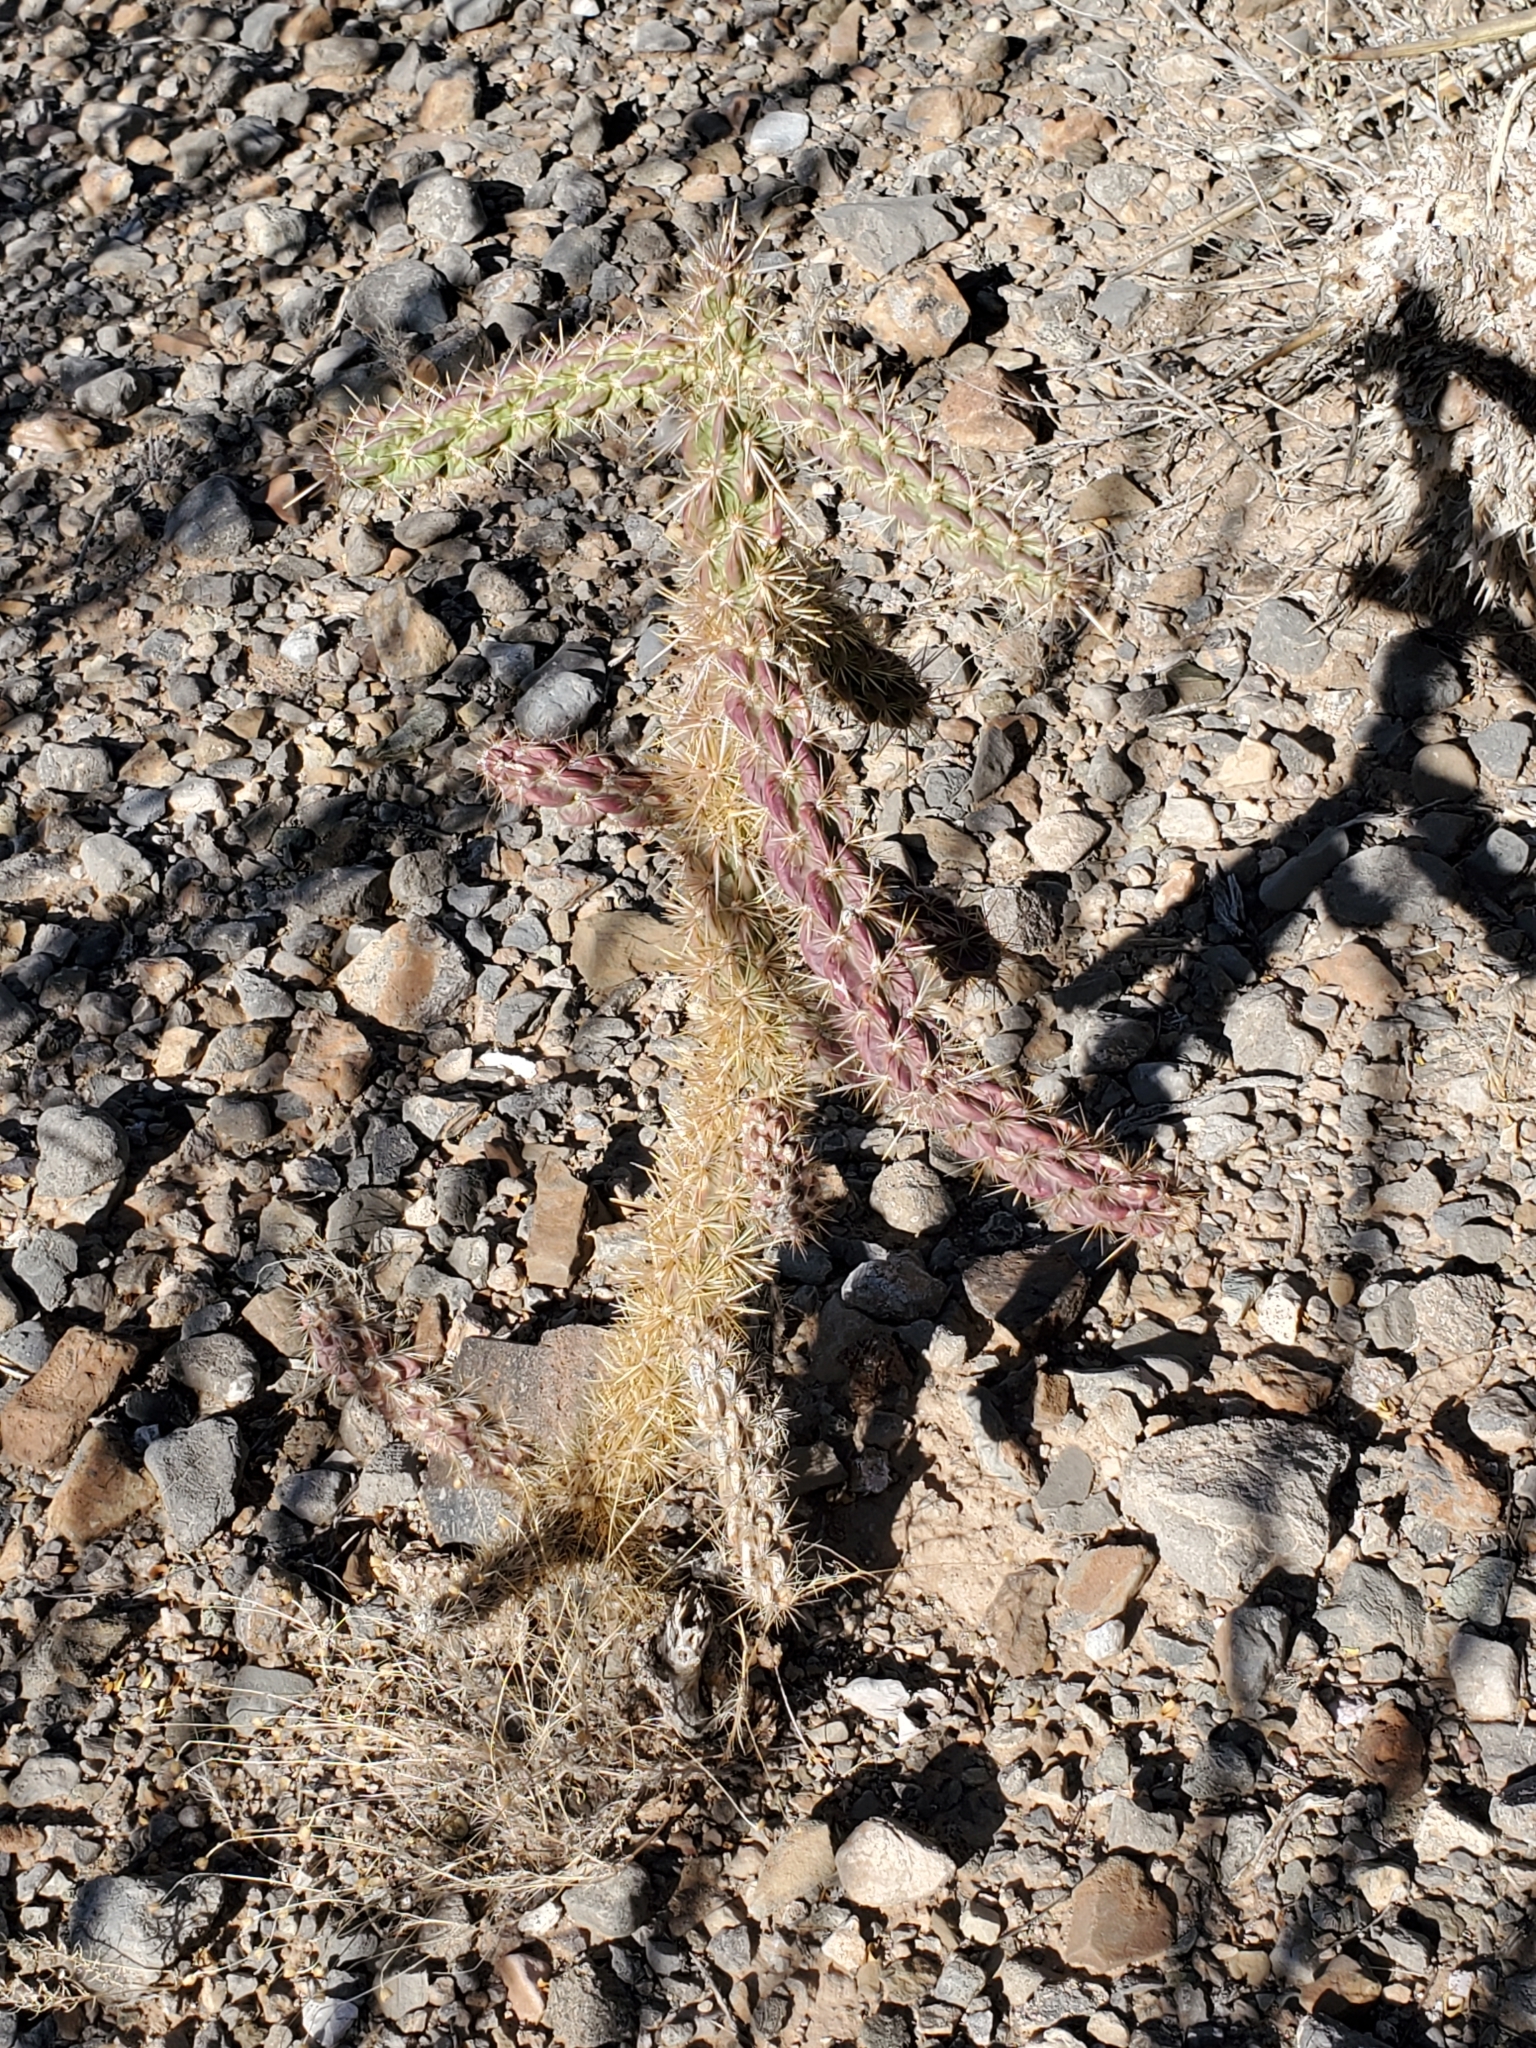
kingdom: Plantae
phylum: Tracheophyta
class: Magnoliopsida
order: Caryophyllales
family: Cactaceae
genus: Cylindropuntia
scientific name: Cylindropuntia imbricata
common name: Candelabrum cactus
